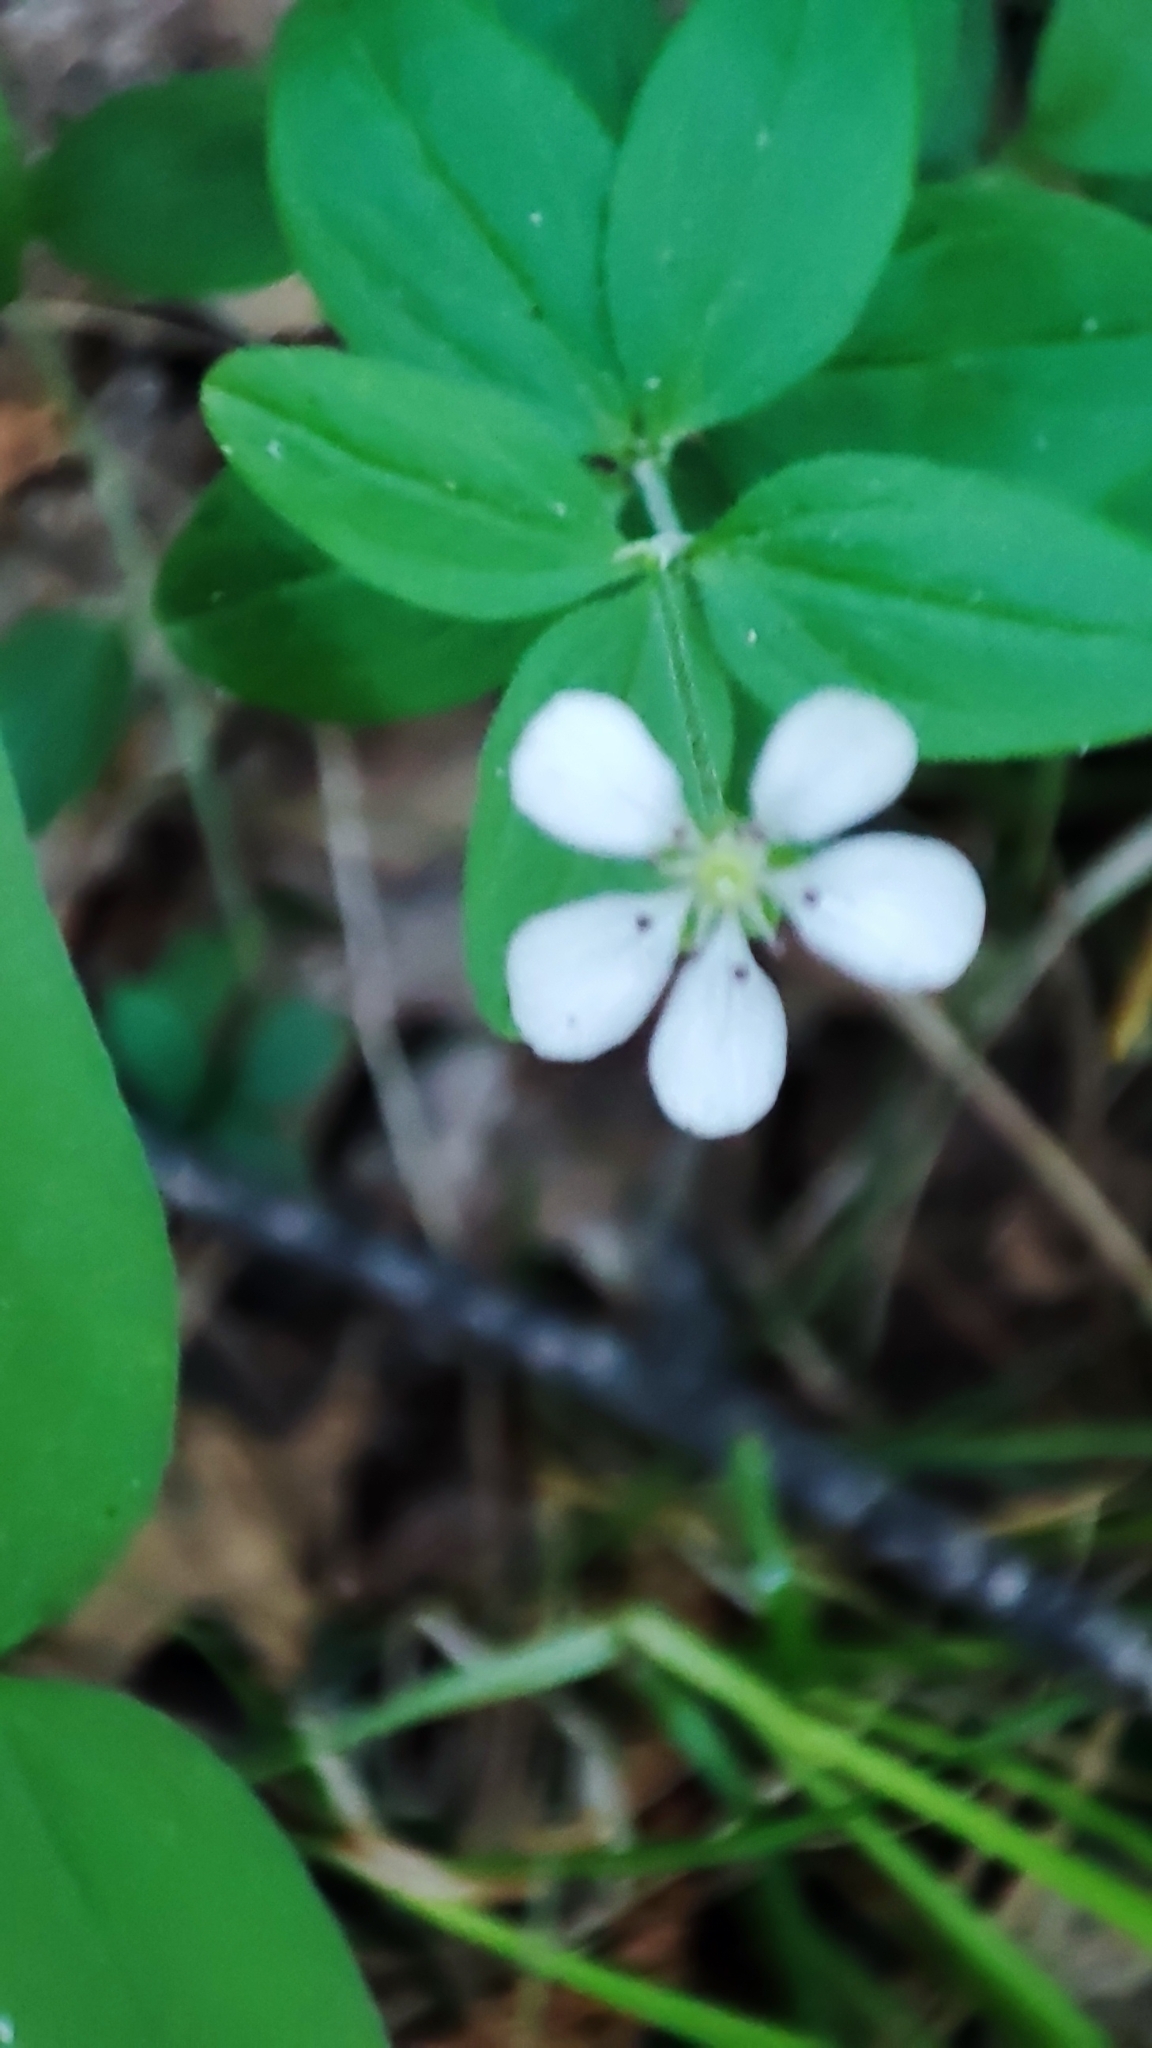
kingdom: Plantae
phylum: Tracheophyta
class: Magnoliopsida
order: Caryophyllales
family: Caryophyllaceae
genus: Moehringia
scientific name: Moehringia lateriflora
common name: Blunt-leaved sandwort
